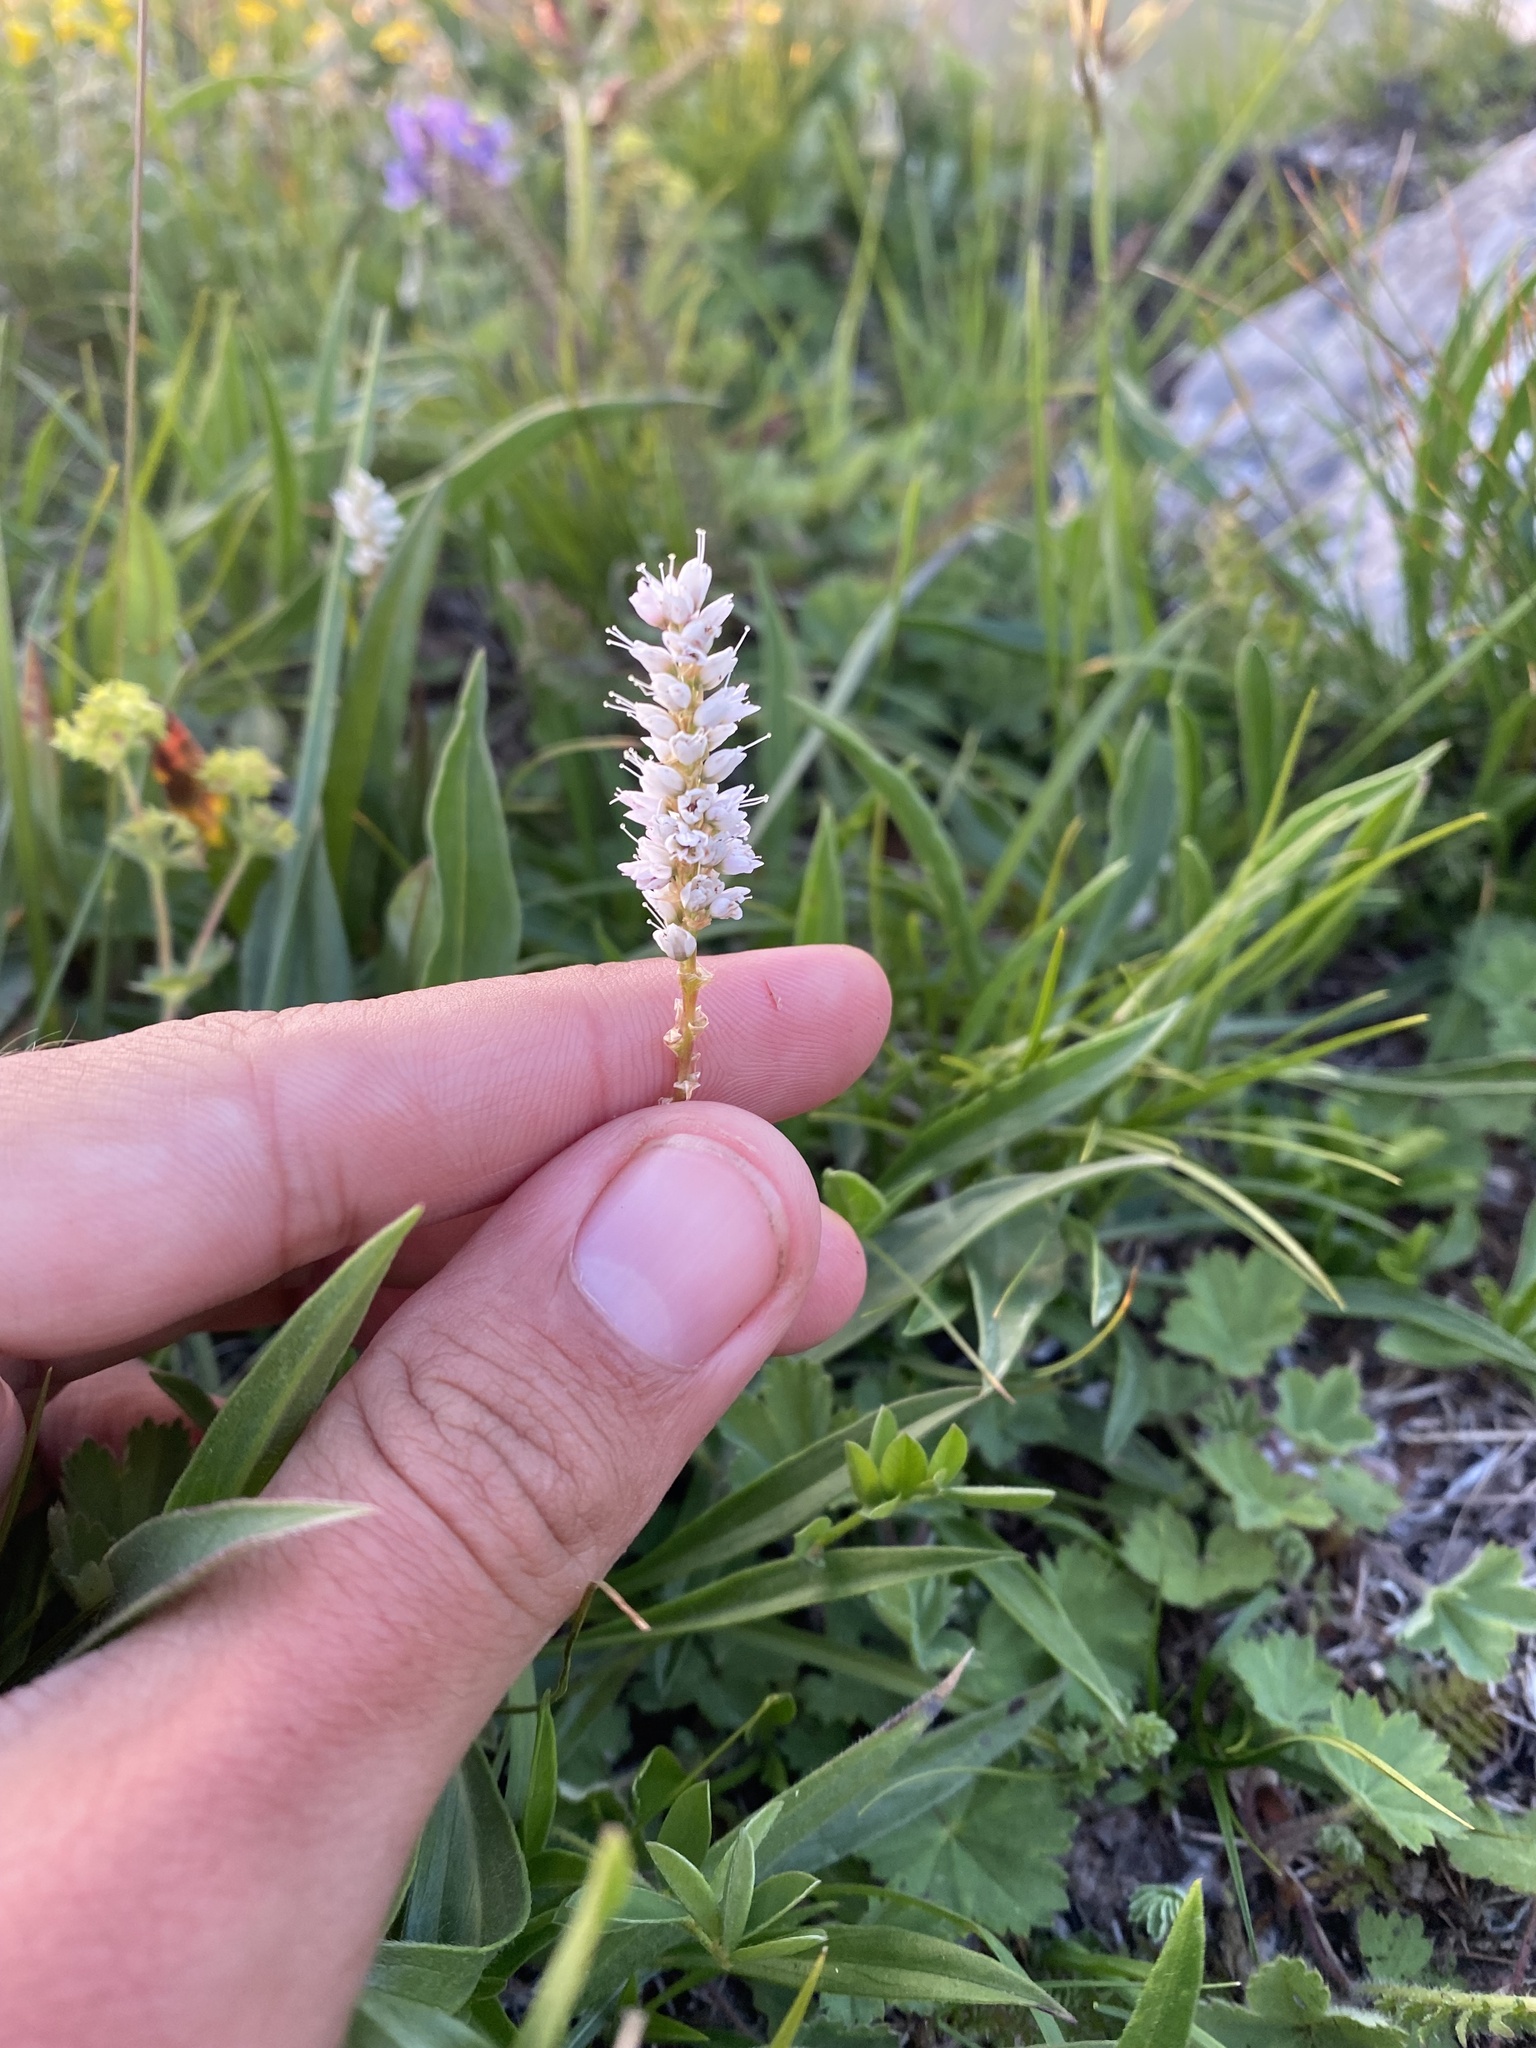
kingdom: Plantae
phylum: Tracheophyta
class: Magnoliopsida
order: Caryophyllales
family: Polygonaceae
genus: Bistorta
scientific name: Bistorta vivipara
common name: Alpine bistort
